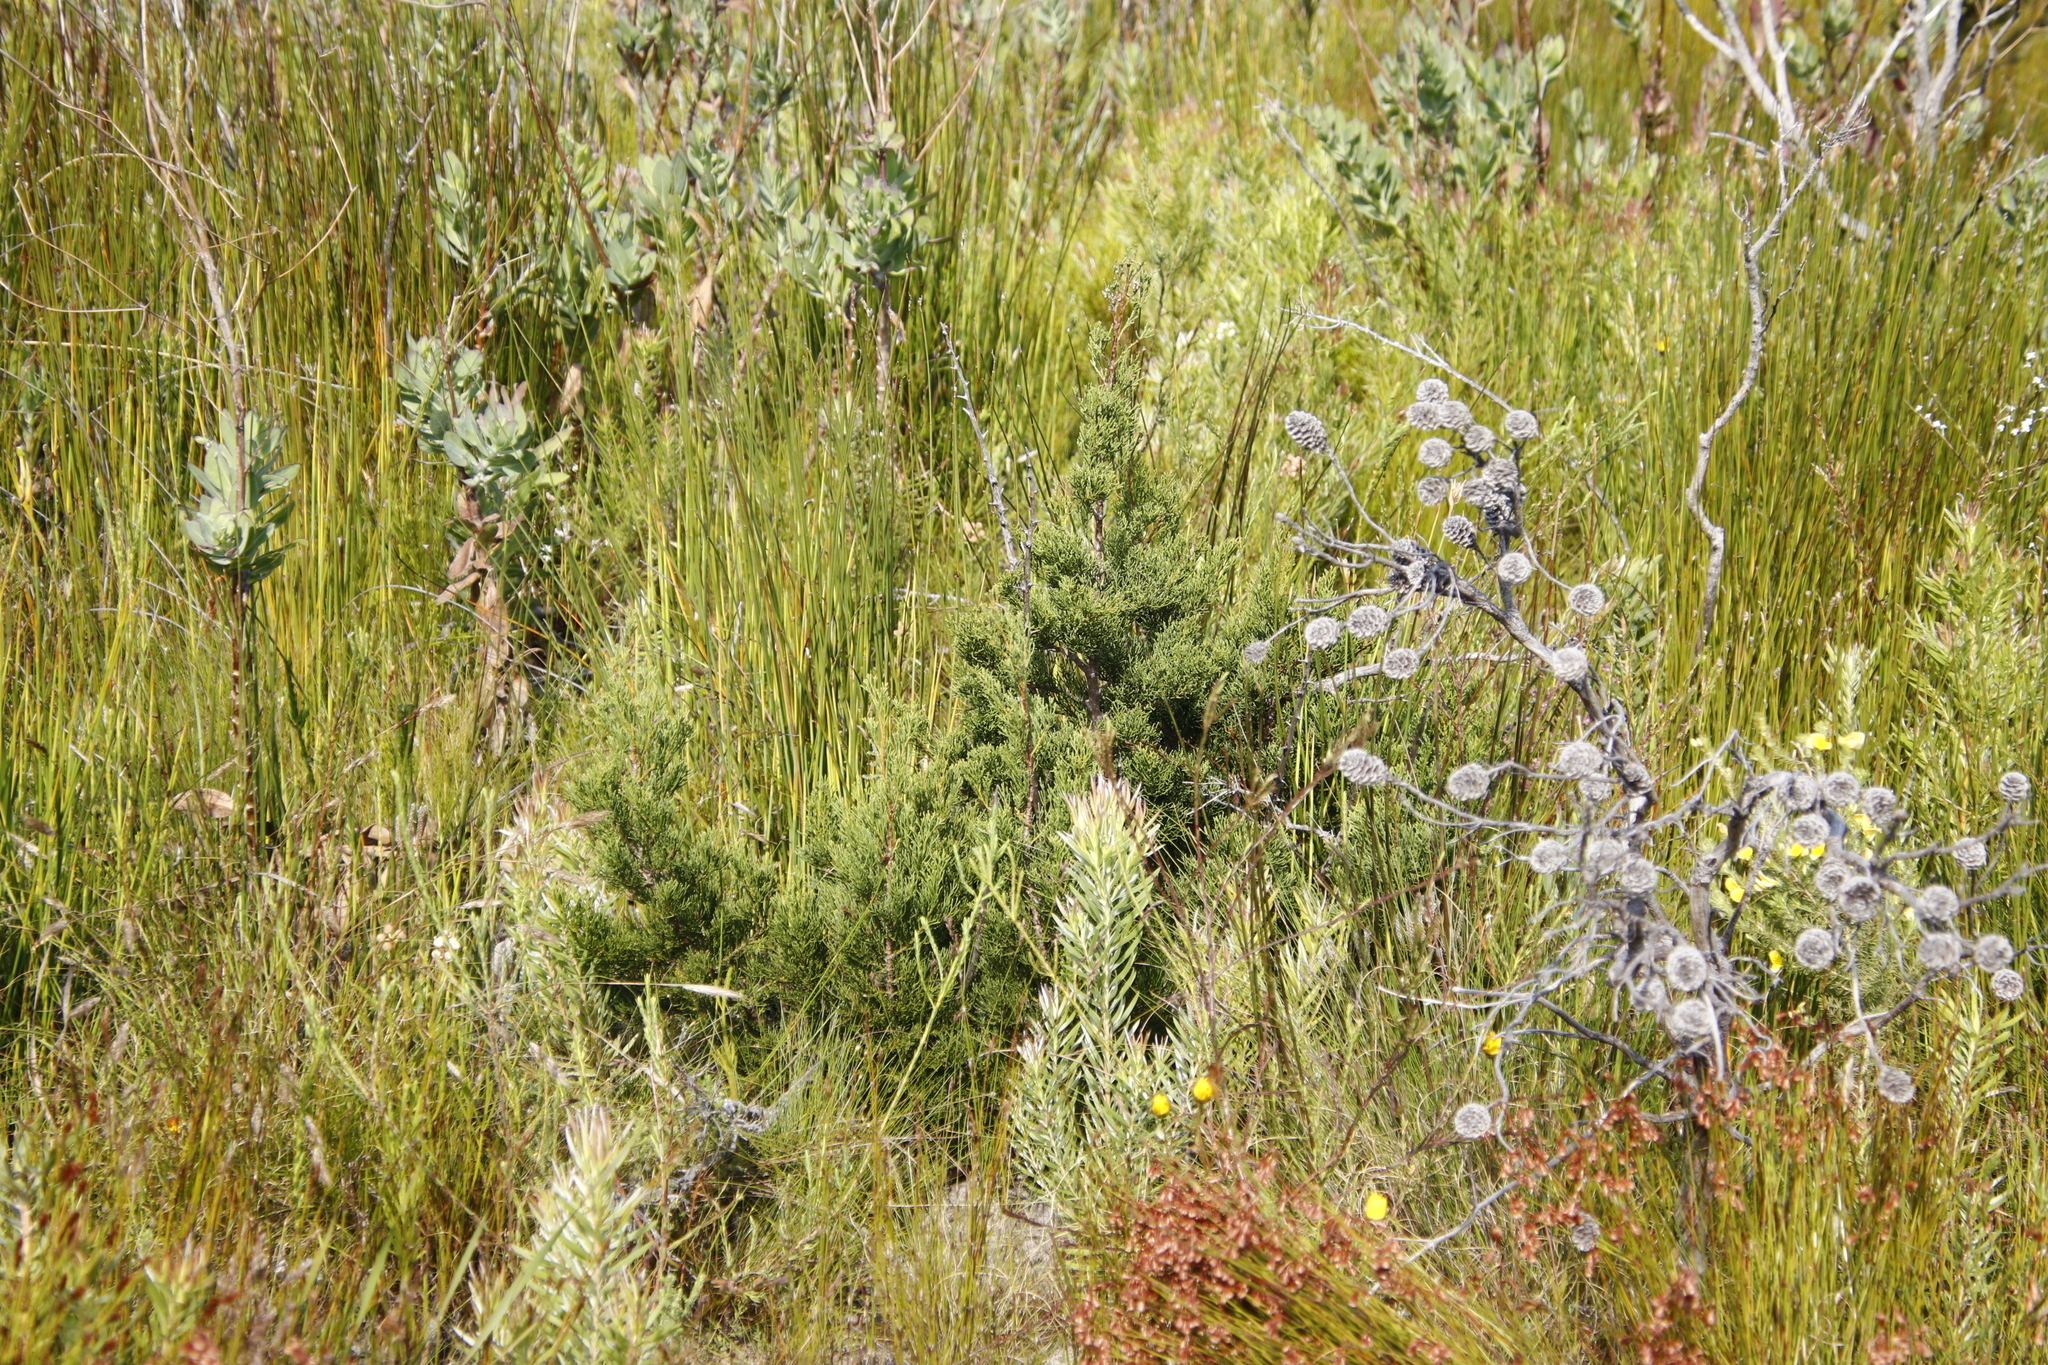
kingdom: Plantae
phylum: Tracheophyta
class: Pinopsida
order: Pinales
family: Cupressaceae
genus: Widdringtonia
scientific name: Widdringtonia nodiflora
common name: Cape cypress
